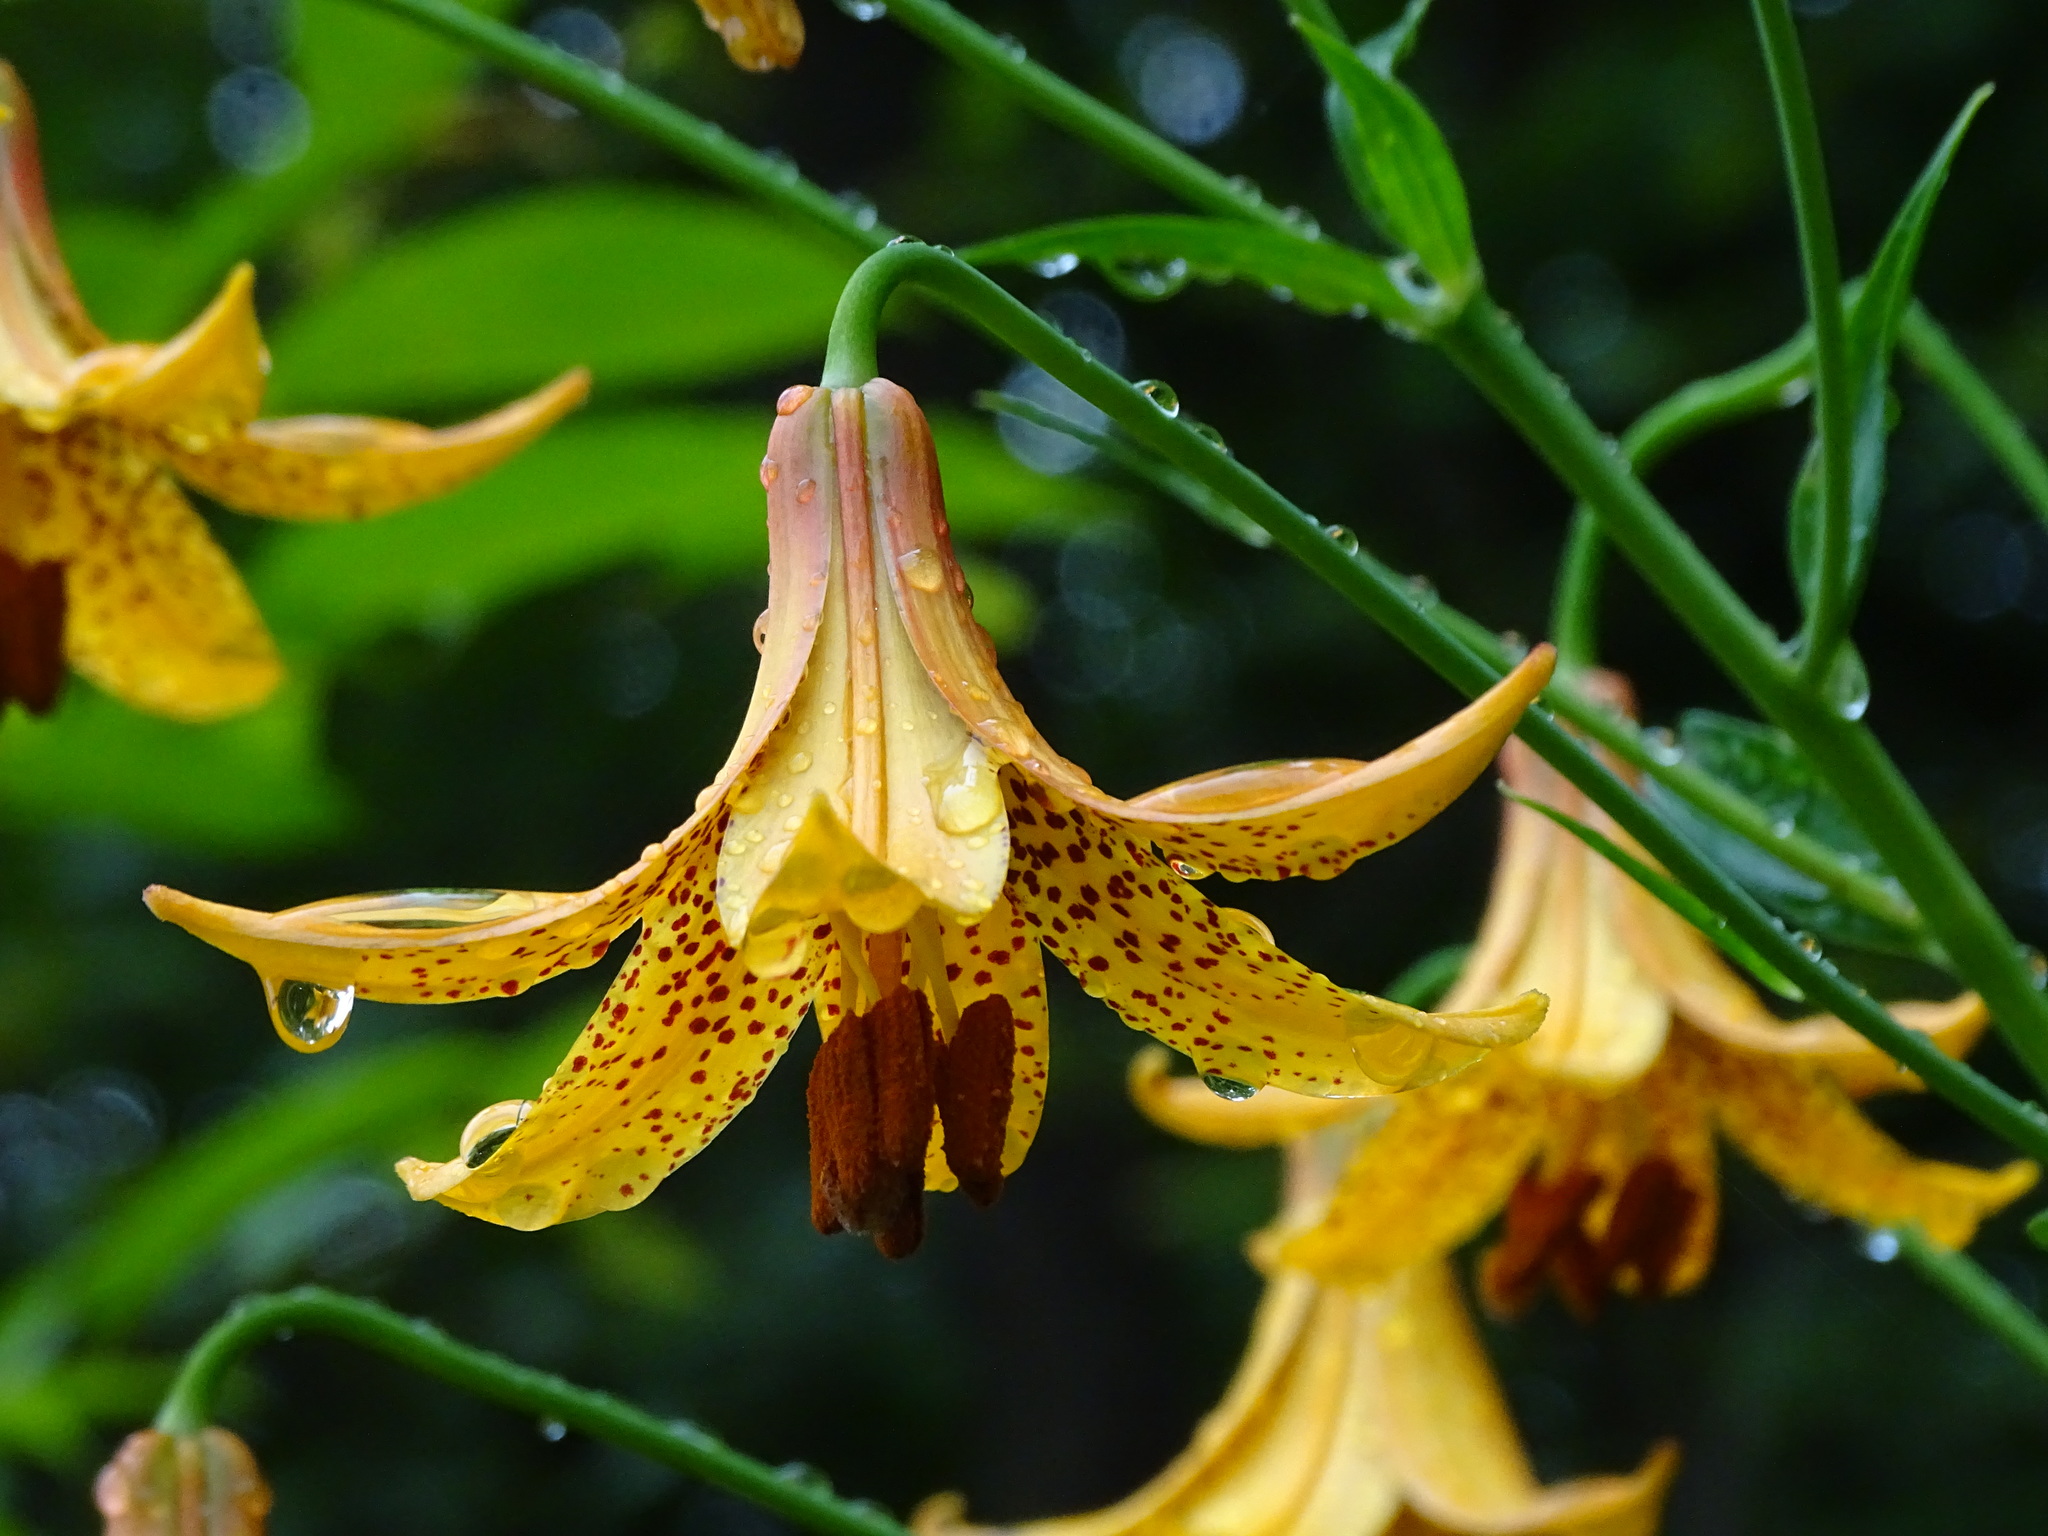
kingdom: Plantae
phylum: Tracheophyta
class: Liliopsida
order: Liliales
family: Liliaceae
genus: Lilium
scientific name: Lilium canadense
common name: Canada lily
